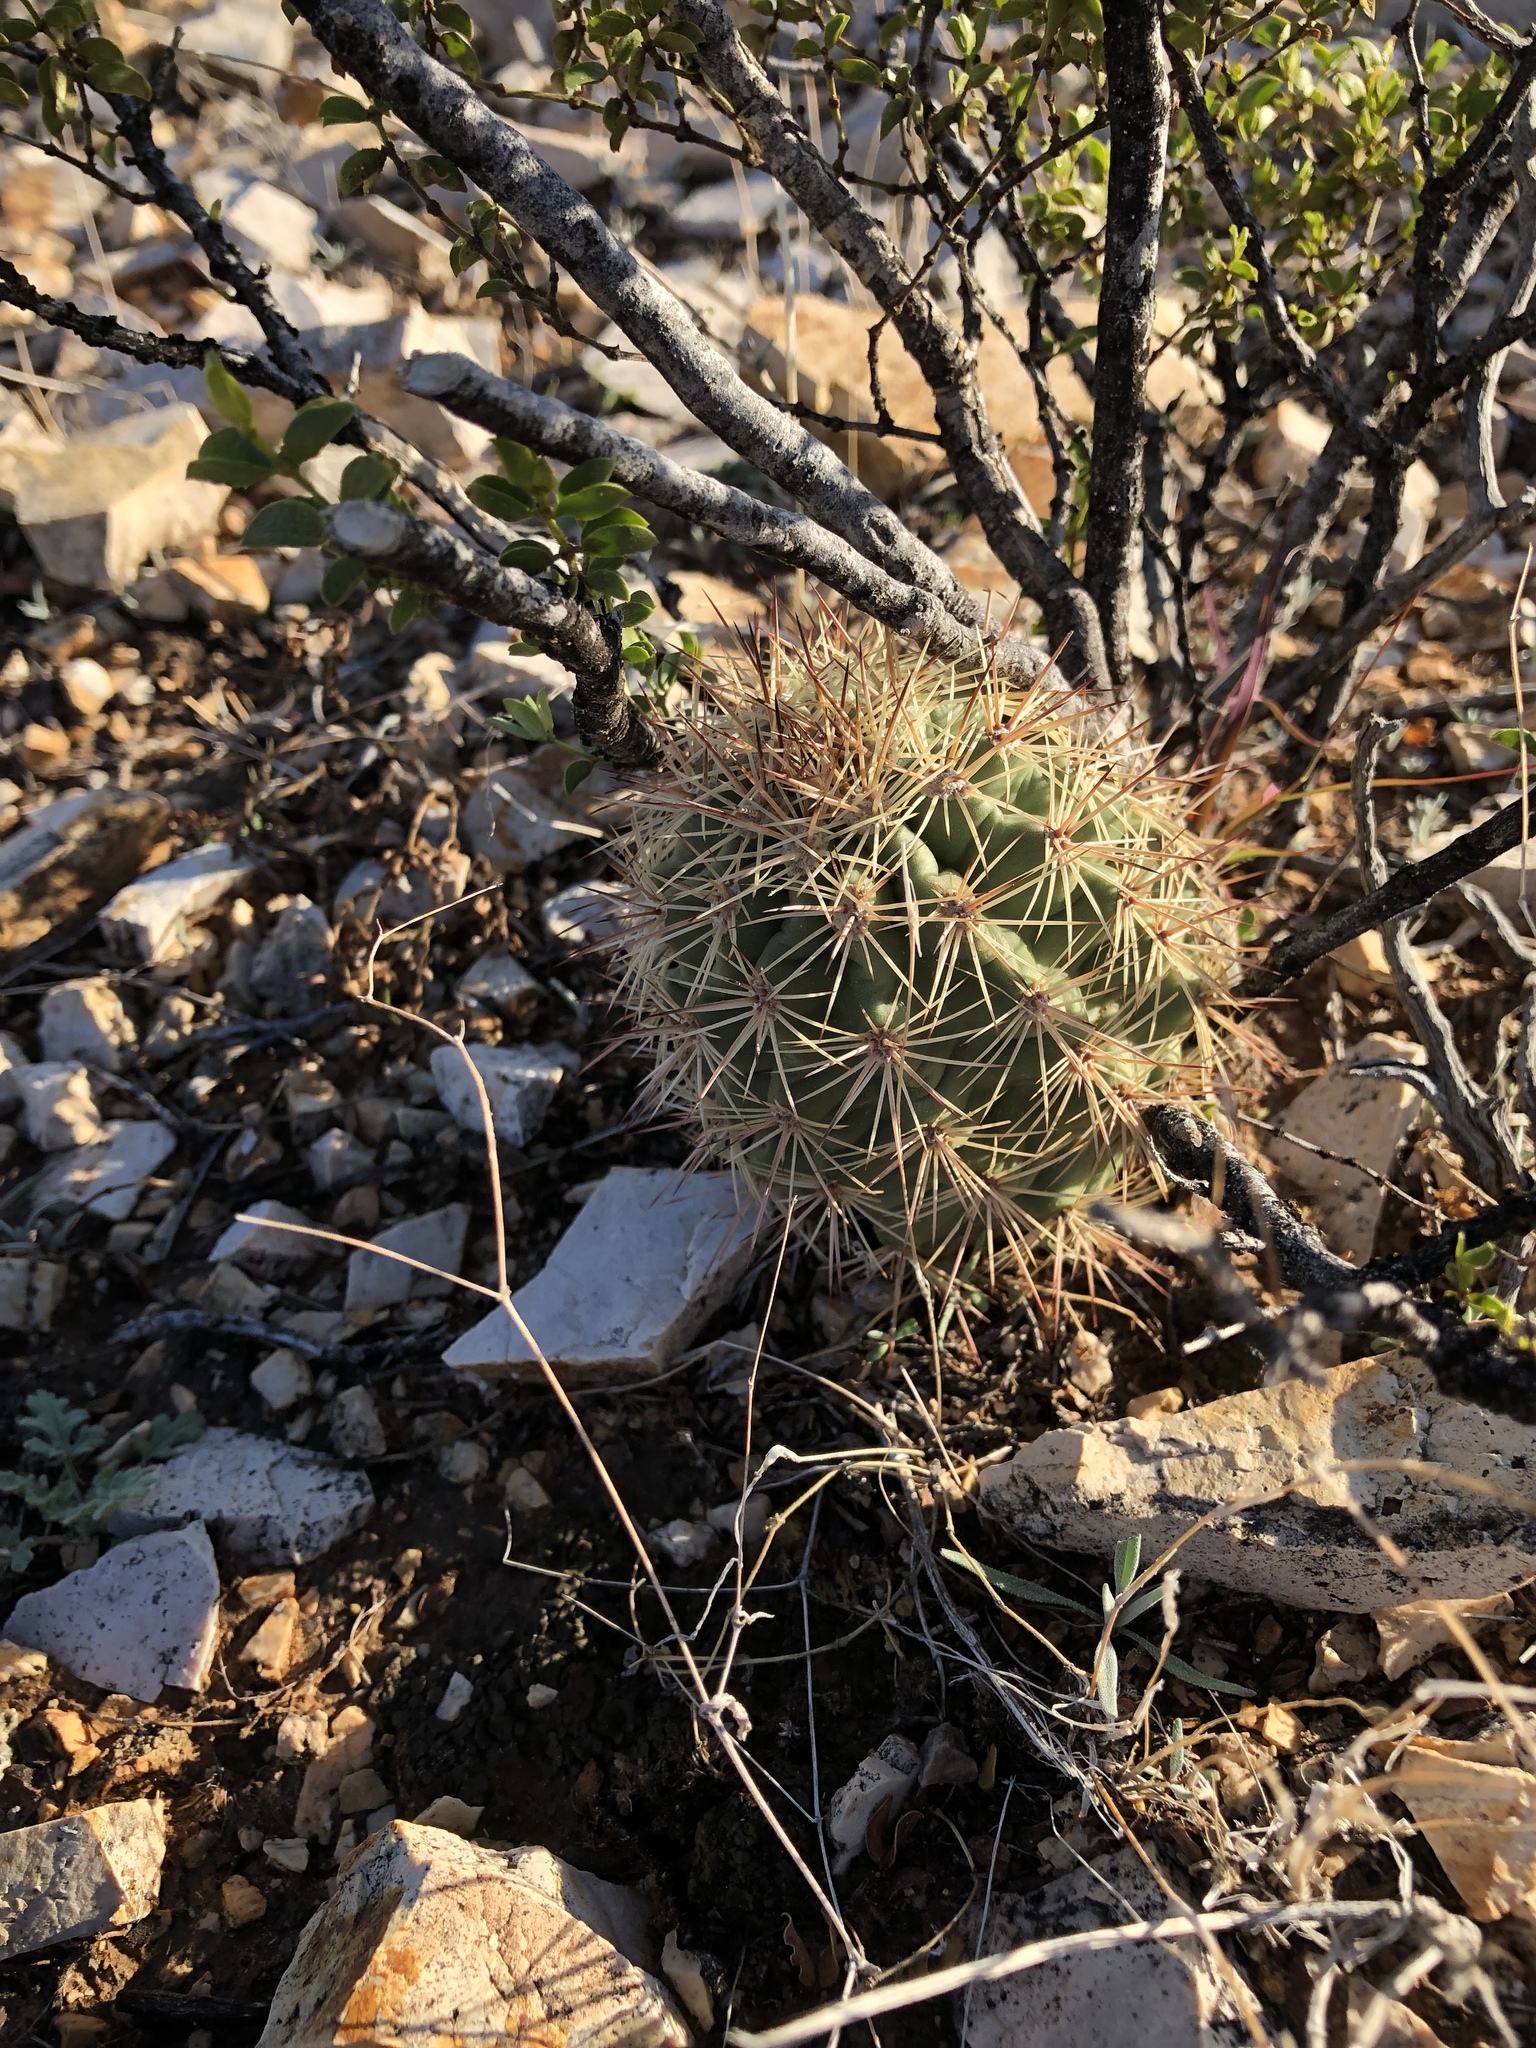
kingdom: Plantae
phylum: Tracheophyta
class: Magnoliopsida
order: Caryophyllales
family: Cactaceae
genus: Echinocereus
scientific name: Echinocereus coccineus
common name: Scarlet hedgehog cactus
